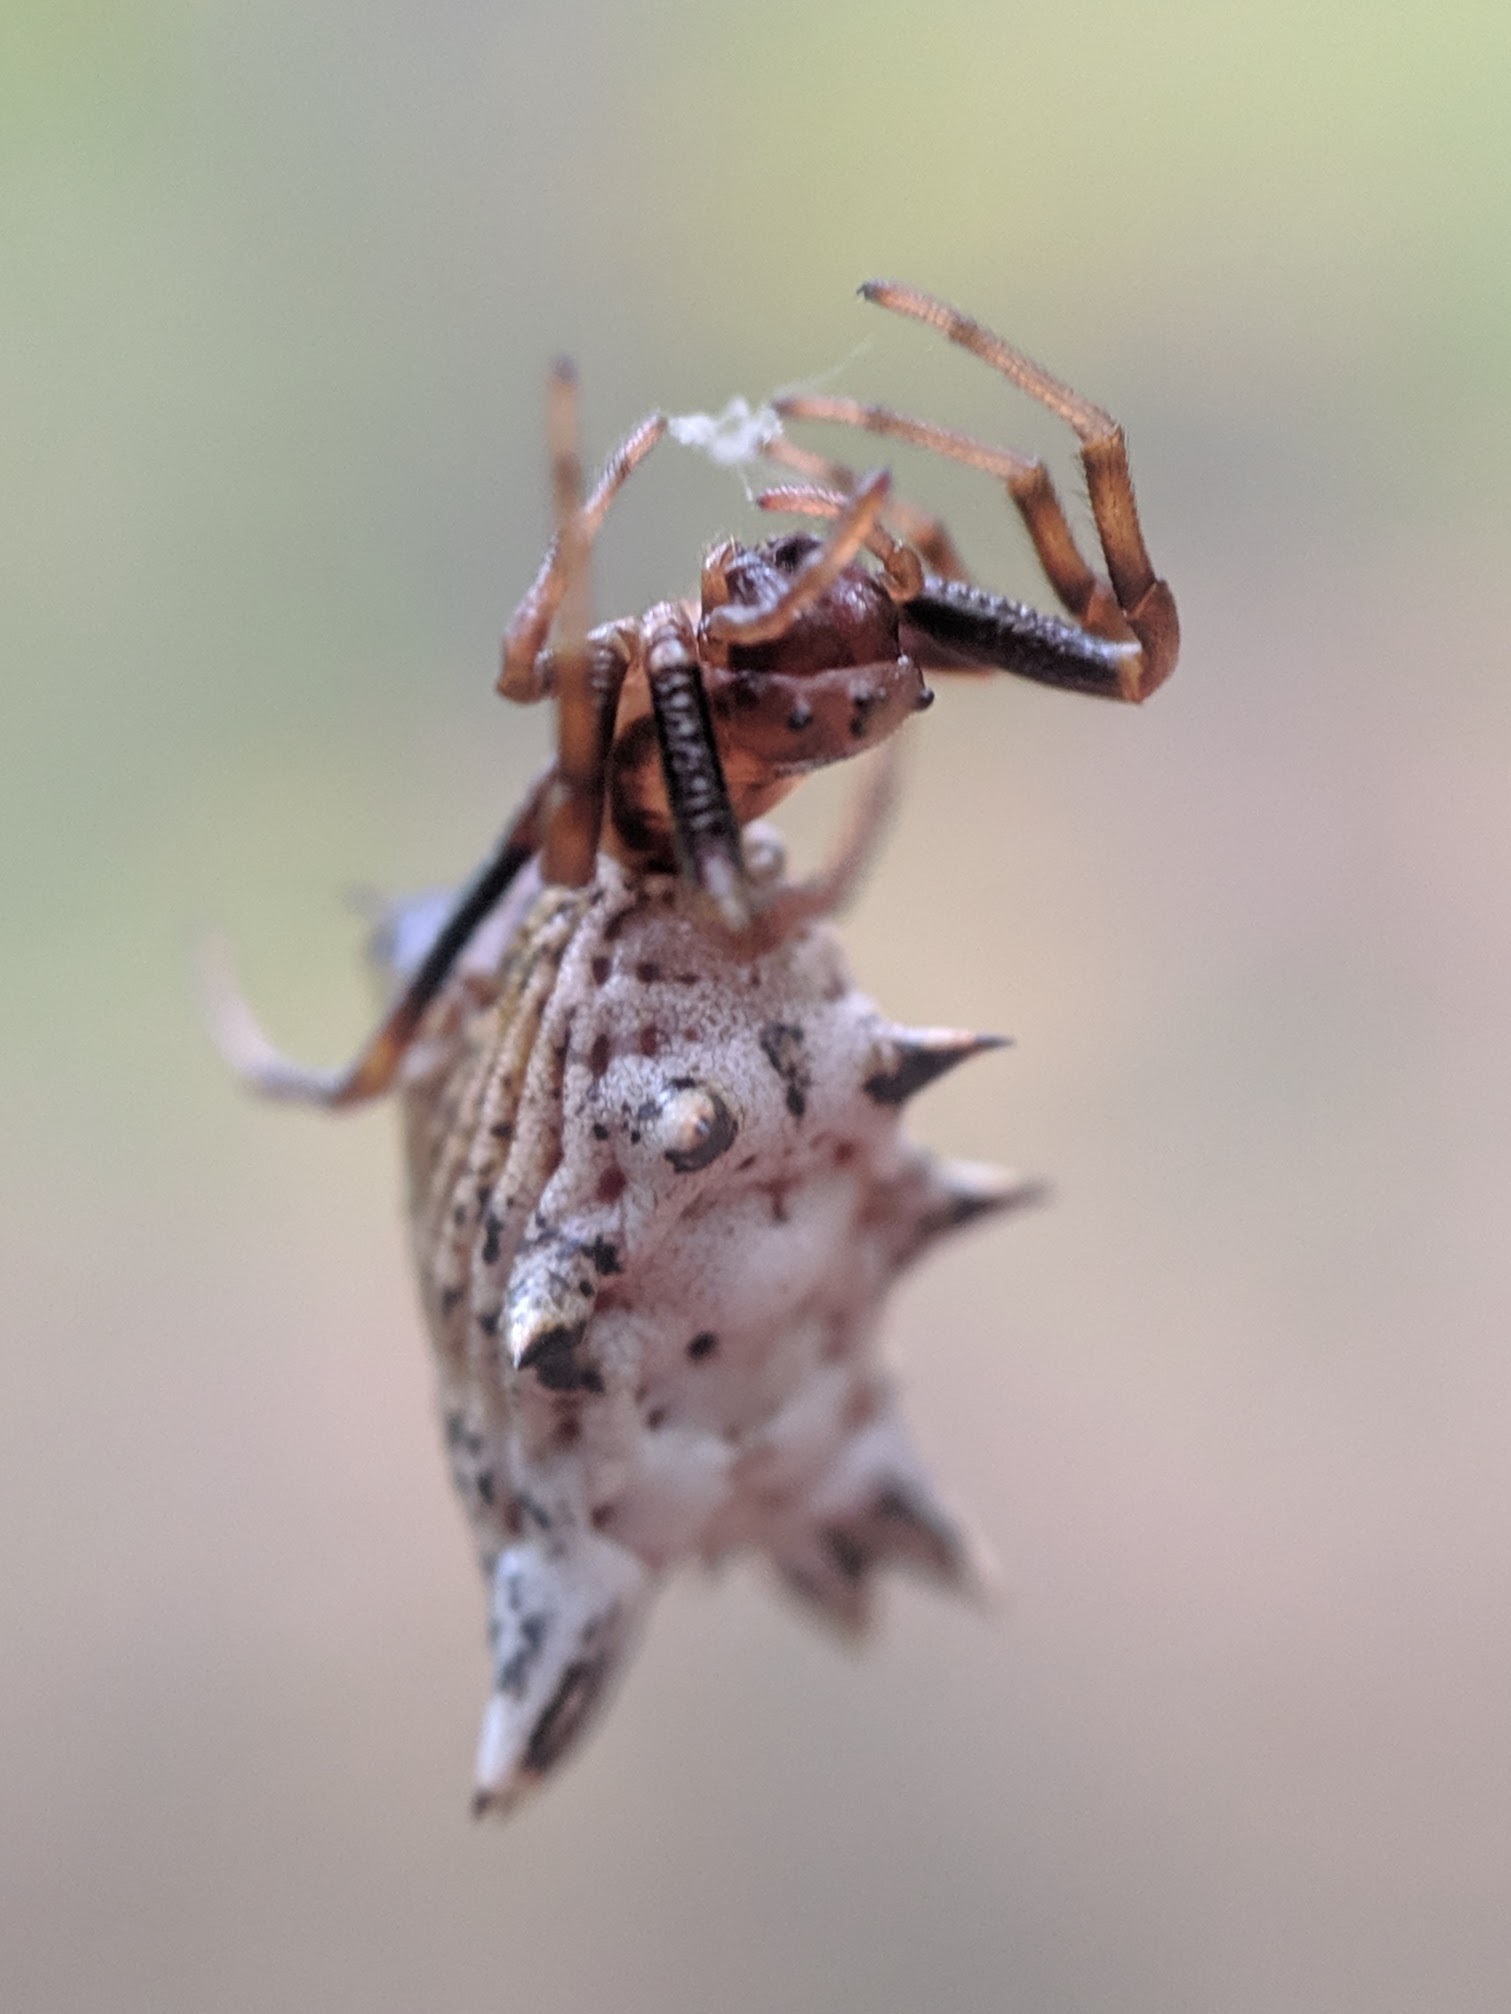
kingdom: Animalia
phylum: Arthropoda
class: Arachnida
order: Araneae
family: Araneidae
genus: Micrathena
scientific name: Micrathena gracilis
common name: Orb weavers
